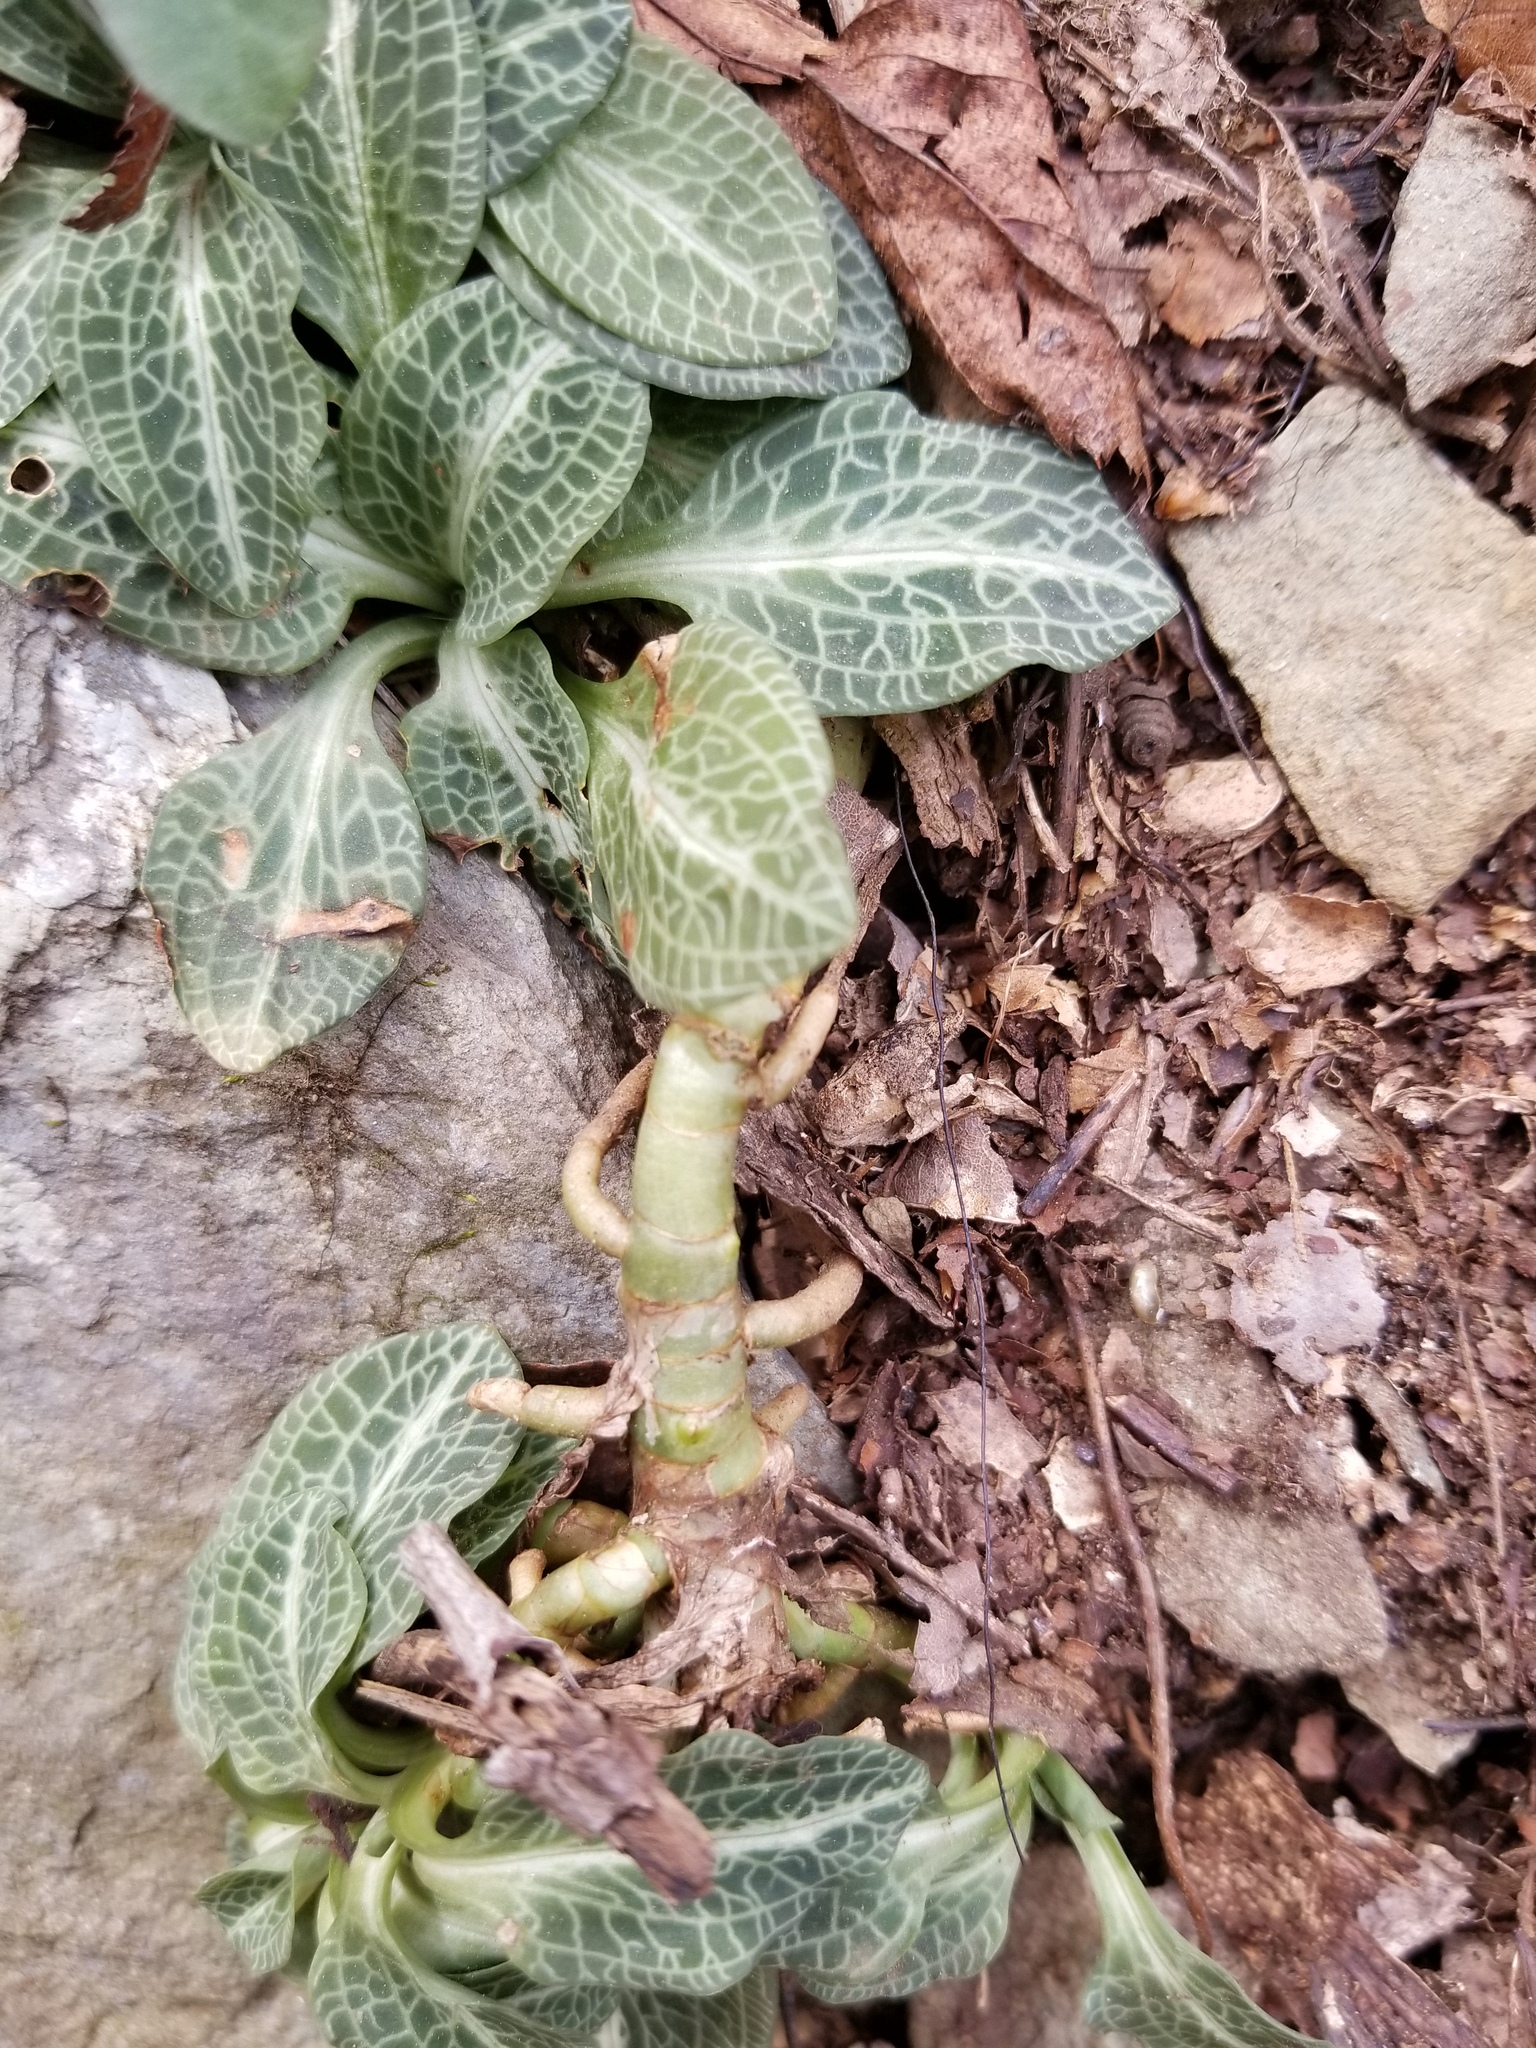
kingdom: Plantae
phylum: Tracheophyta
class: Liliopsida
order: Asparagales
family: Orchidaceae
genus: Goodyera
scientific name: Goodyera pubescens
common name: Downy rattlesnake-plantain
